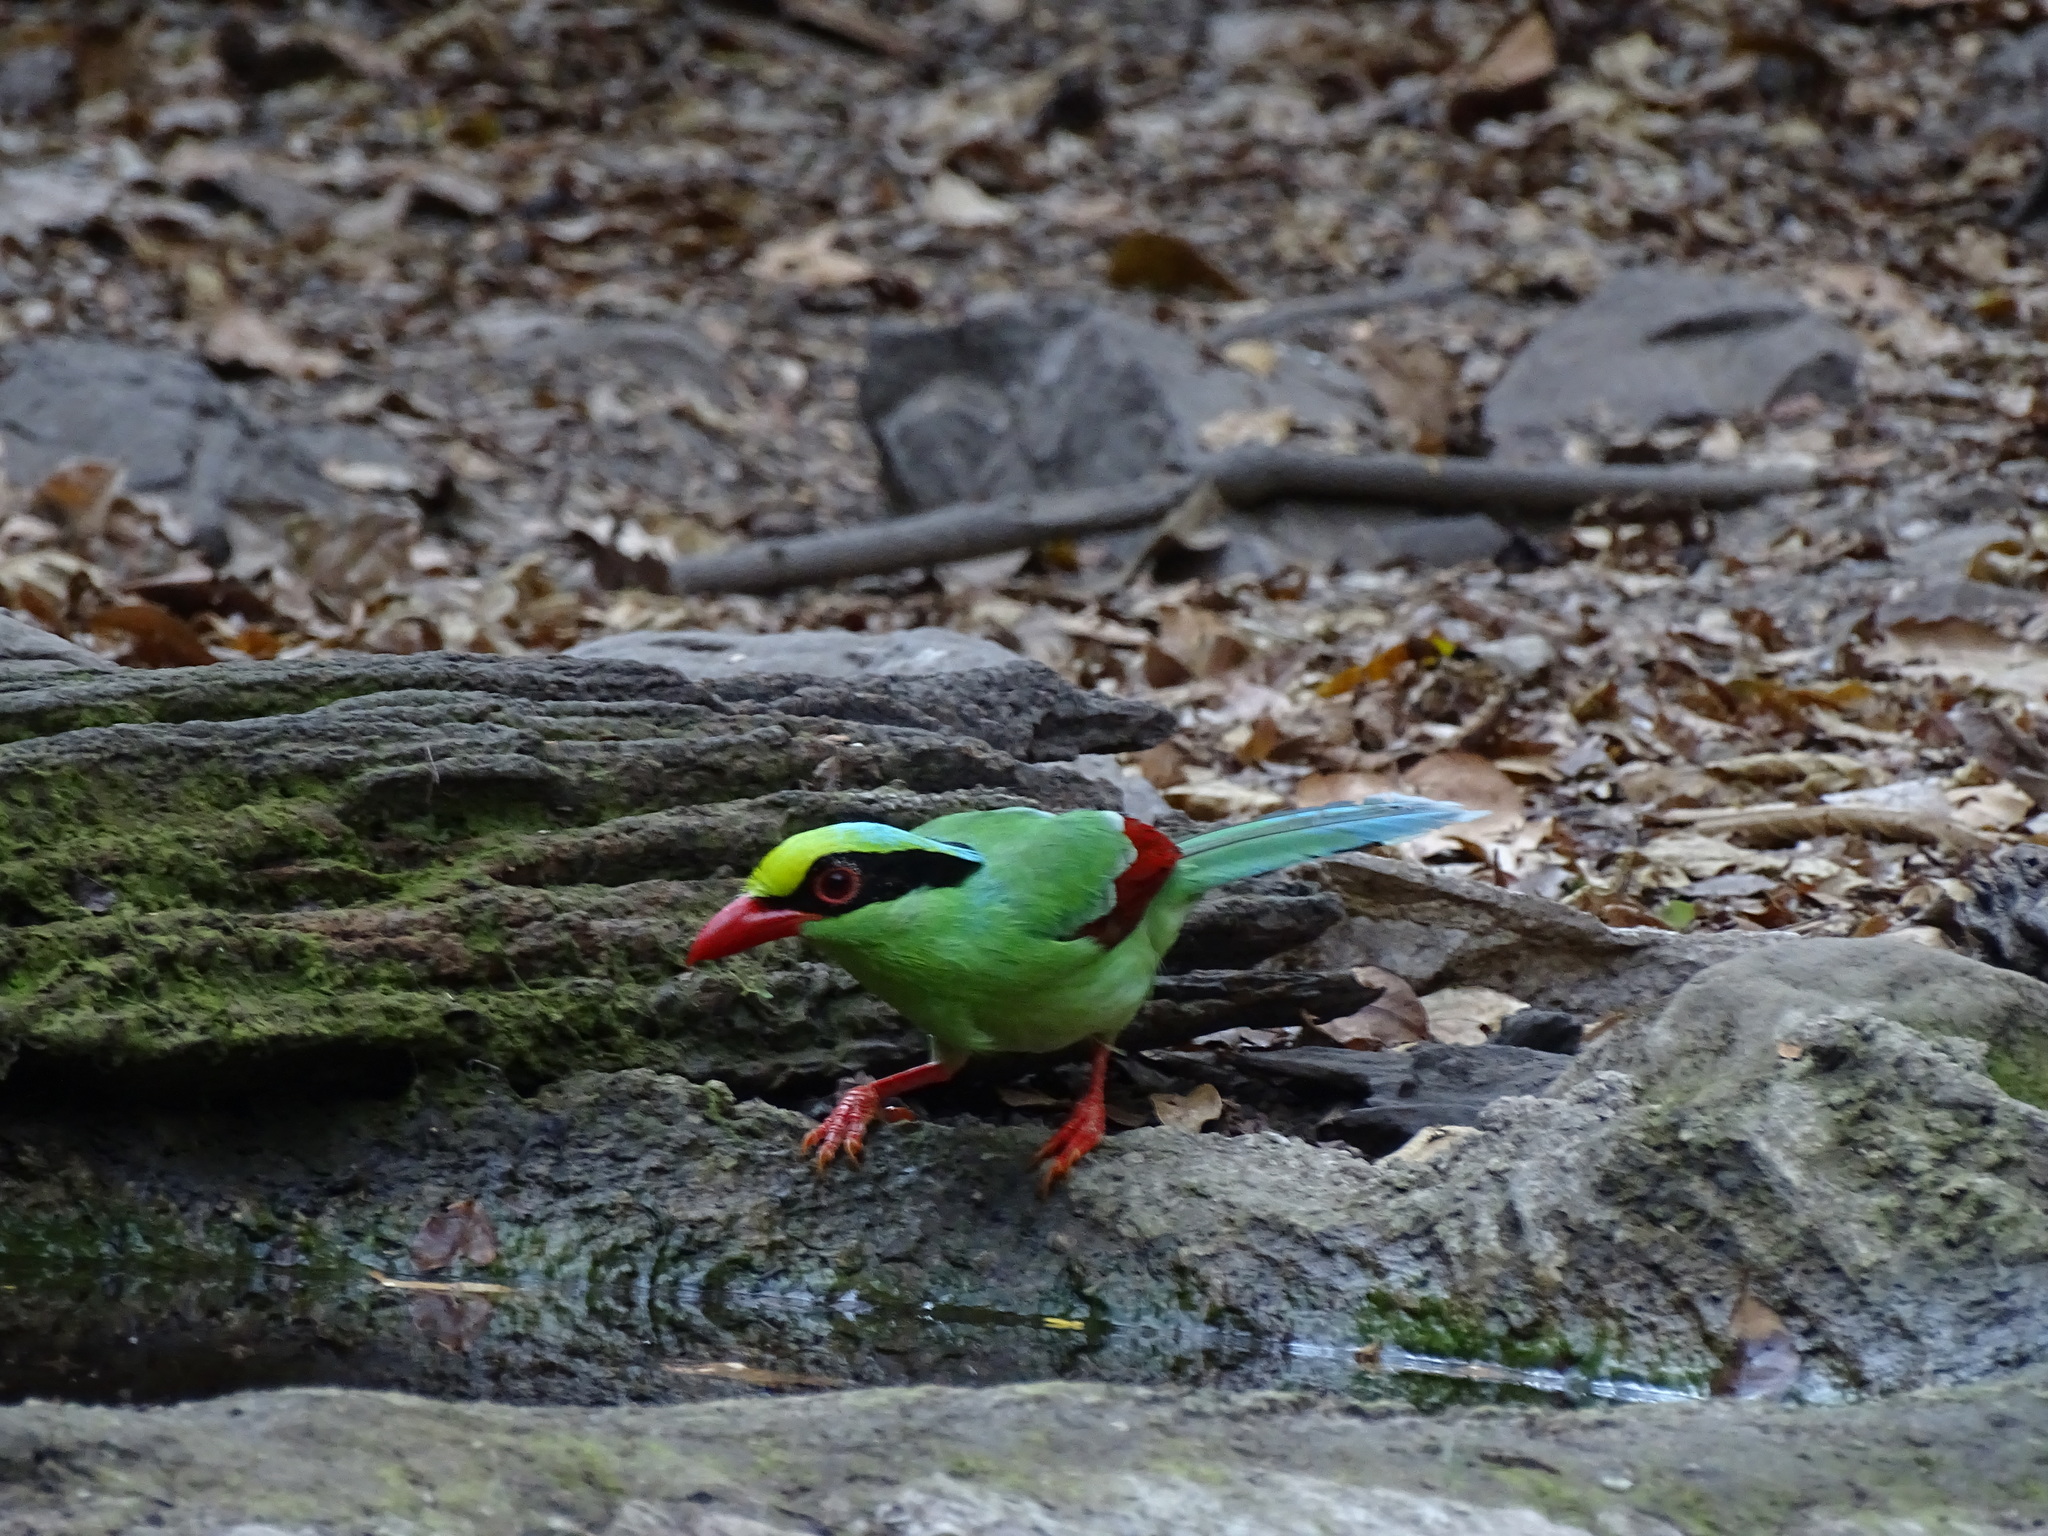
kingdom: Animalia
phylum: Chordata
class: Aves
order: Passeriformes
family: Corvidae
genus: Cissa
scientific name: Cissa chinensis
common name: Common green magpie
